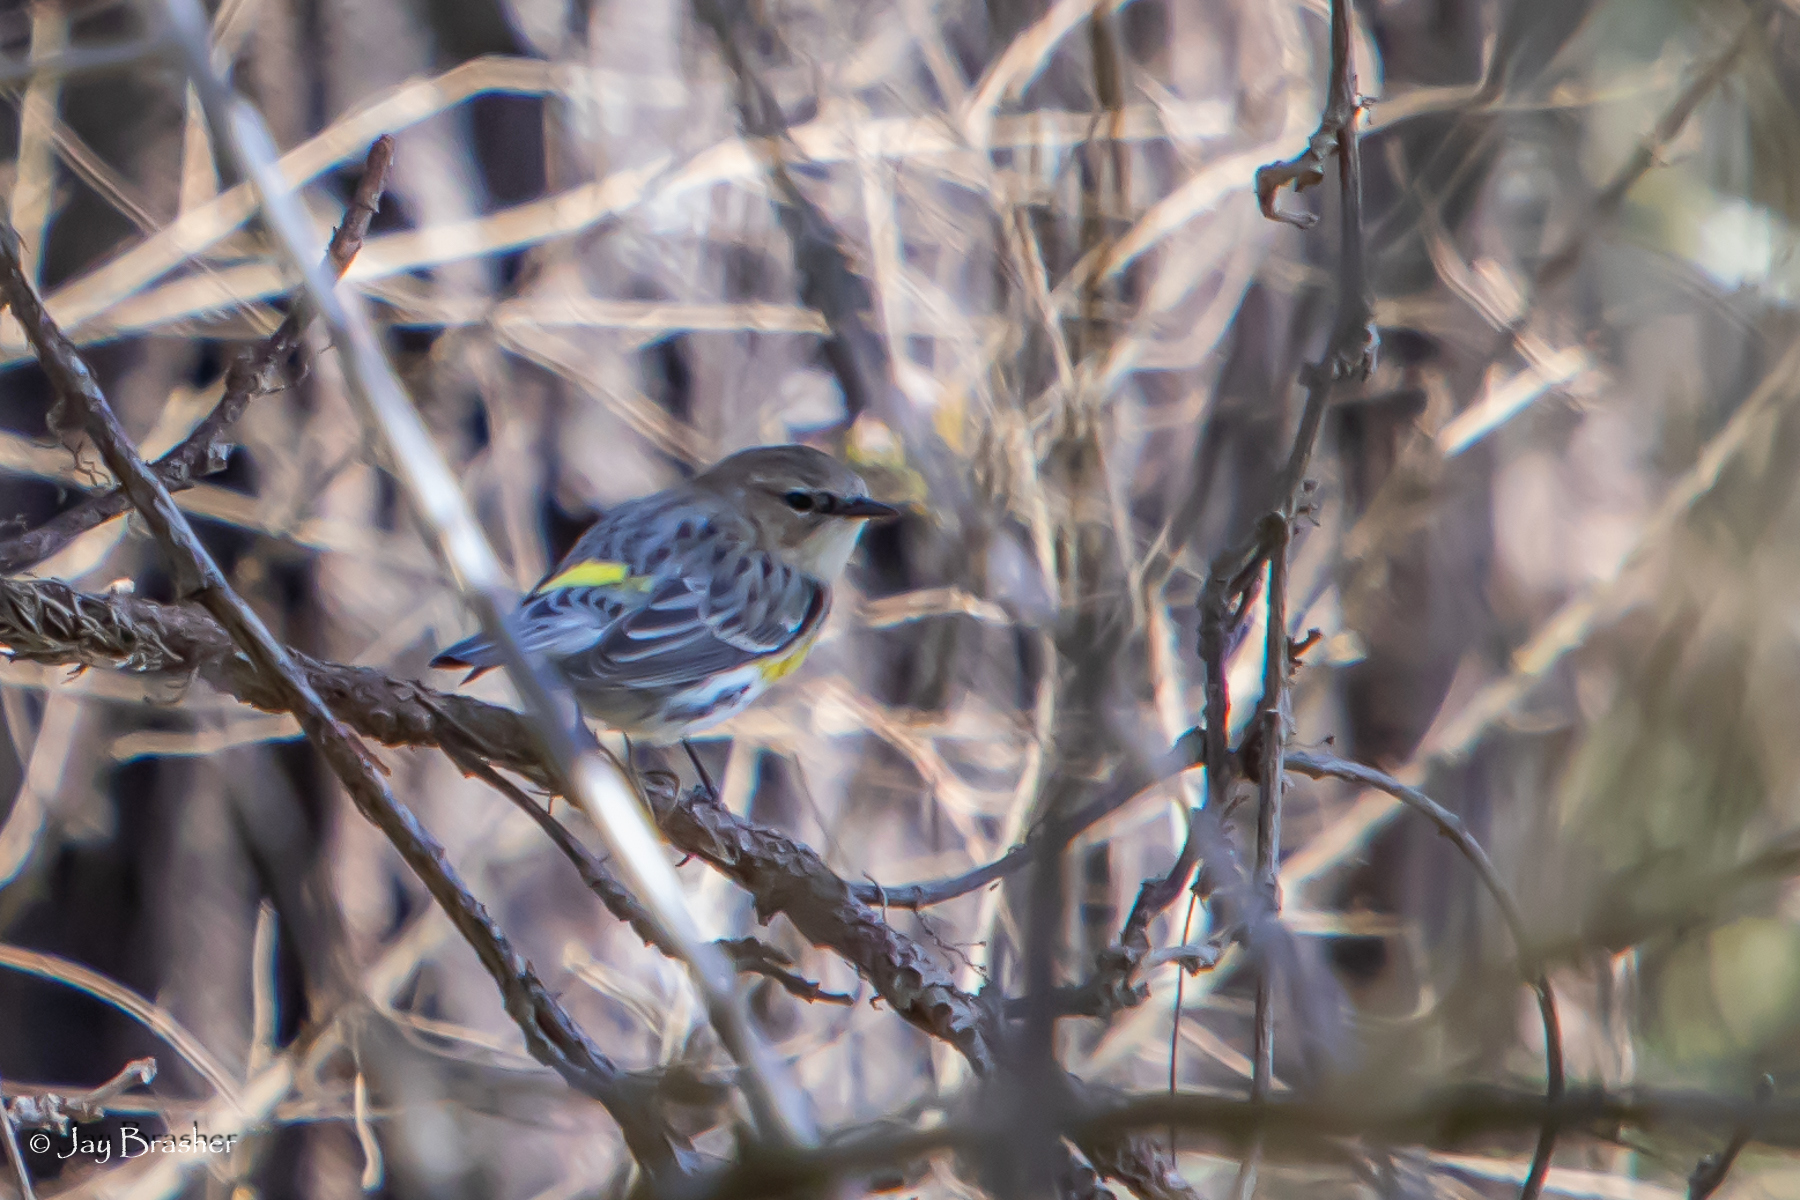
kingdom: Animalia
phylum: Chordata
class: Aves
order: Passeriformes
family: Parulidae
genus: Setophaga
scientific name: Setophaga coronata
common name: Myrtle warbler
